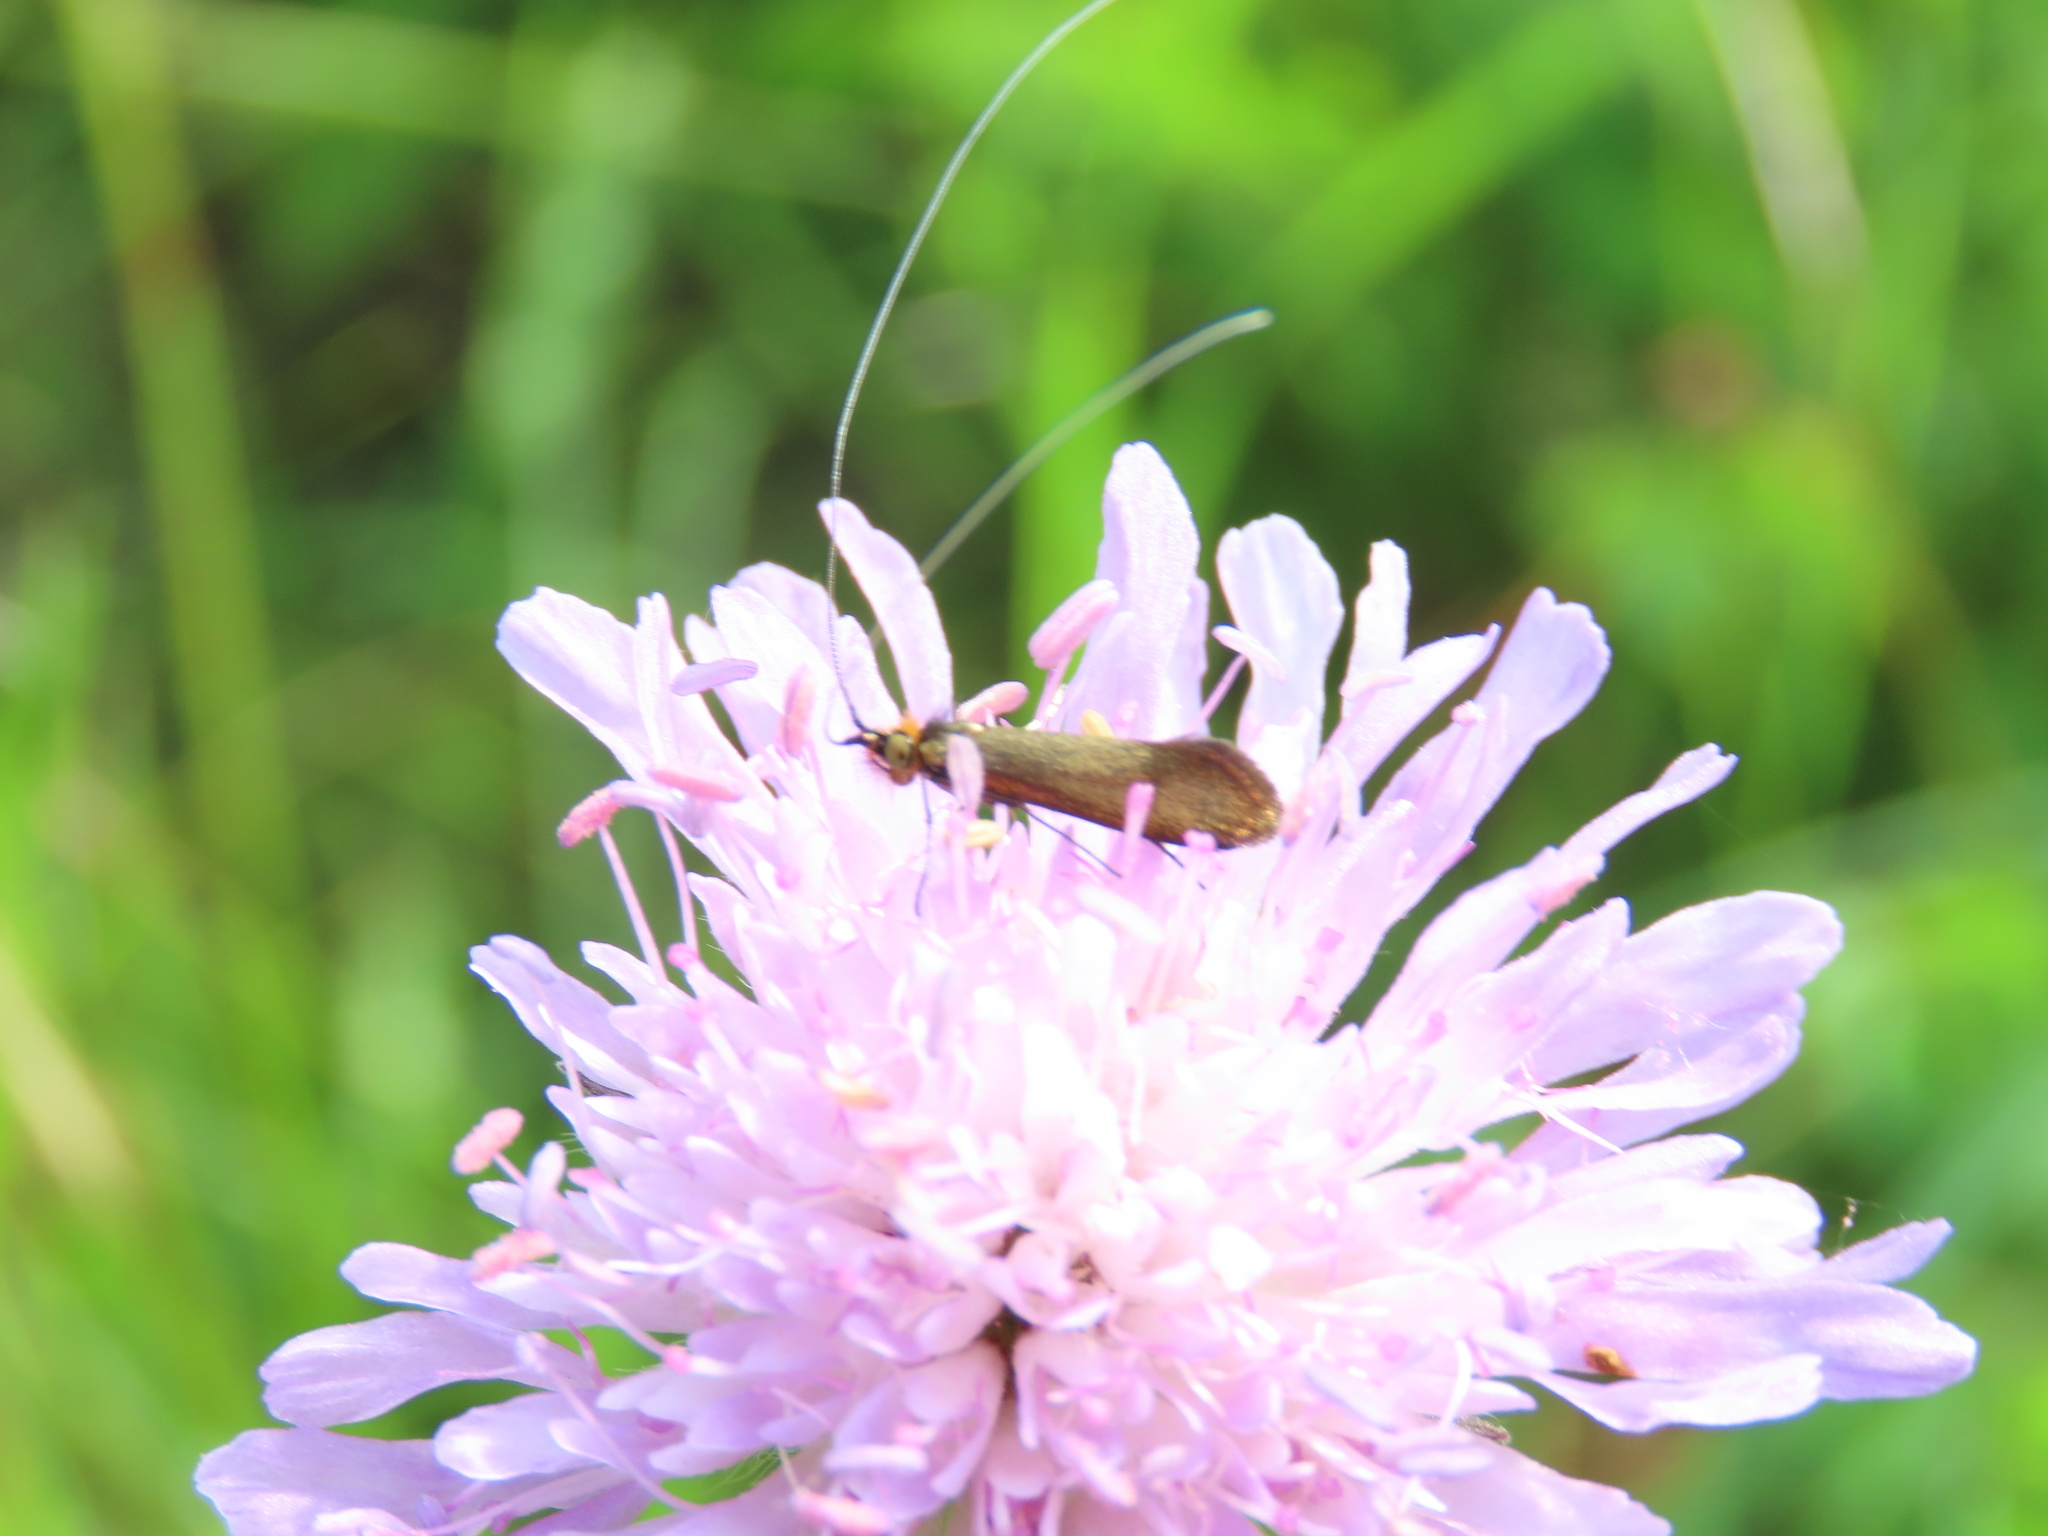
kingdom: Animalia
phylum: Arthropoda
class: Insecta
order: Lepidoptera
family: Adelidae
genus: Nemophora
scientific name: Nemophora metallica
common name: Brassy long-horn
